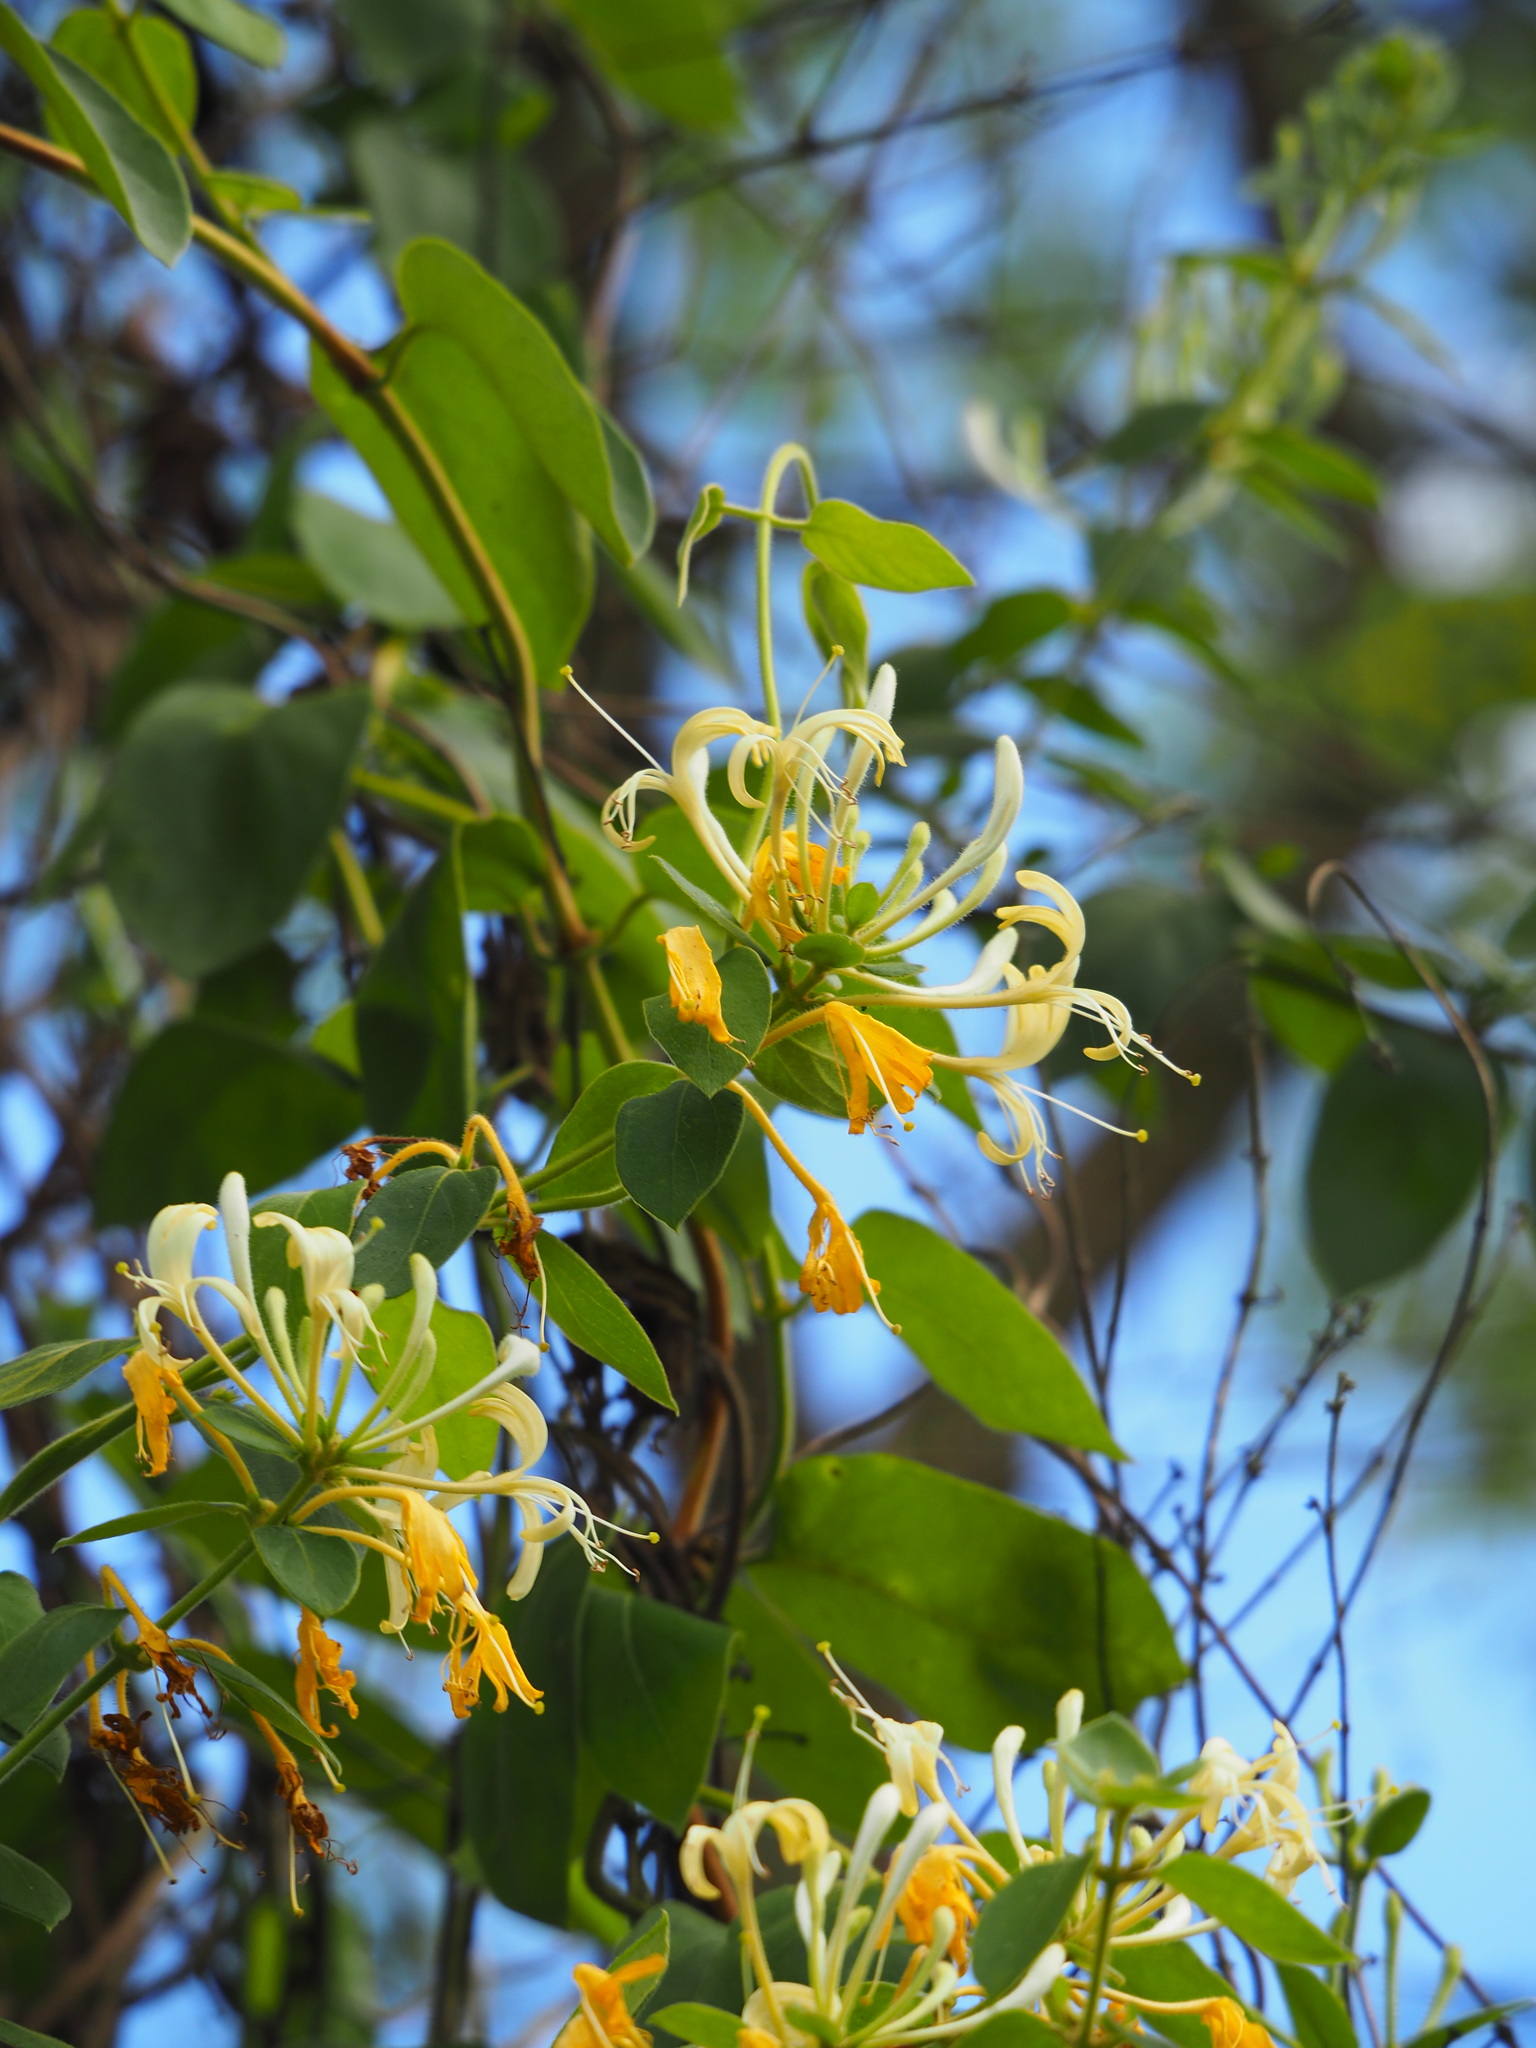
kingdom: Plantae
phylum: Tracheophyta
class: Magnoliopsida
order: Dipsacales
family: Caprifoliaceae
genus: Lonicera
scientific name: Lonicera japonica
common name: Japanese honeysuckle
